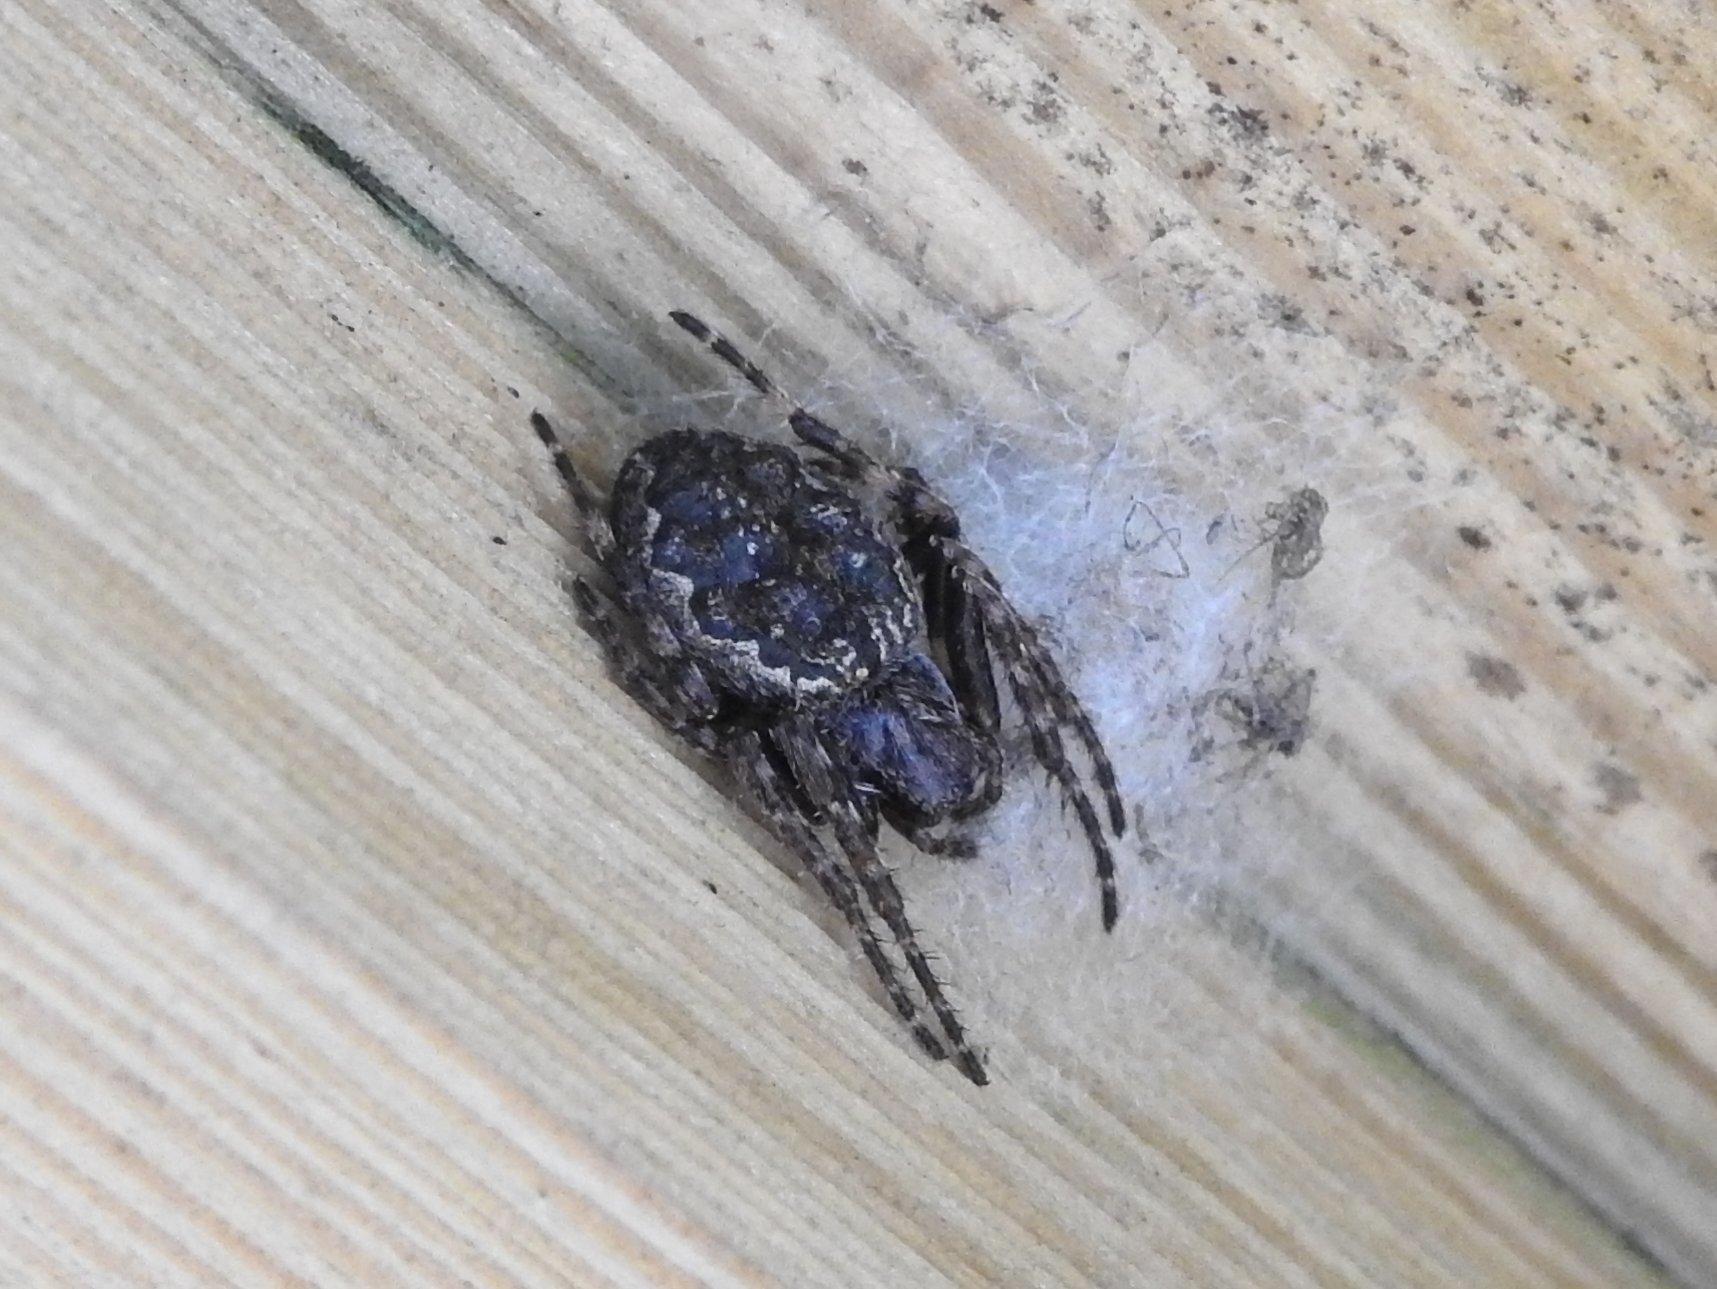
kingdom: Animalia
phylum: Arthropoda
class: Arachnida
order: Araneae
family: Araneidae
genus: Nuctenea
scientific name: Nuctenea umbratica
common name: Toad spider
